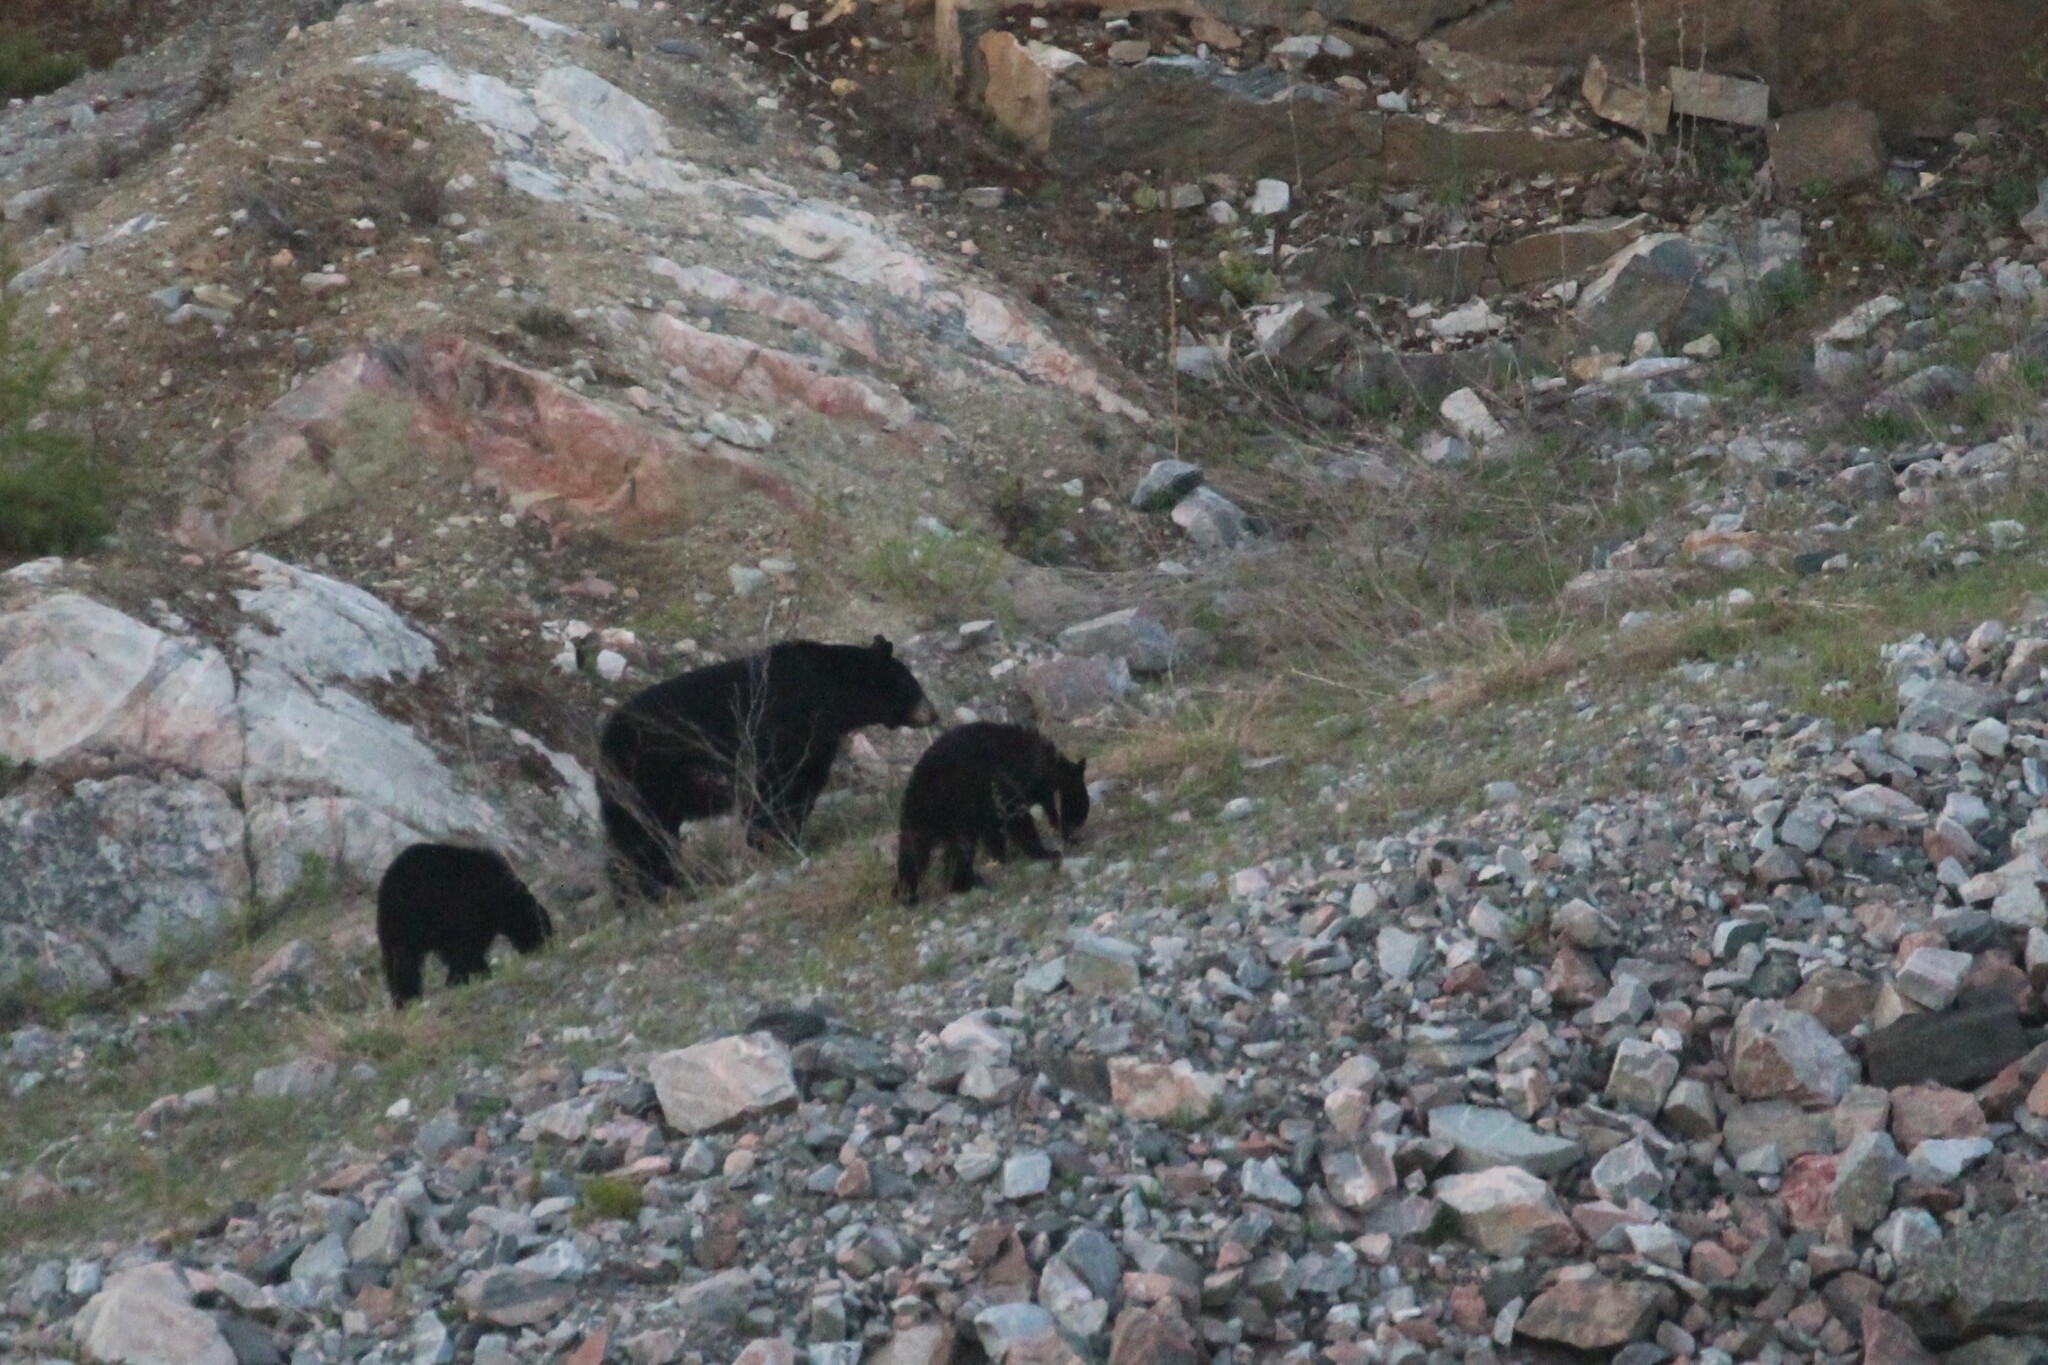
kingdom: Animalia
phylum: Chordata
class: Mammalia
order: Carnivora
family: Ursidae
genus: Ursus
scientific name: Ursus americanus
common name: American black bear
